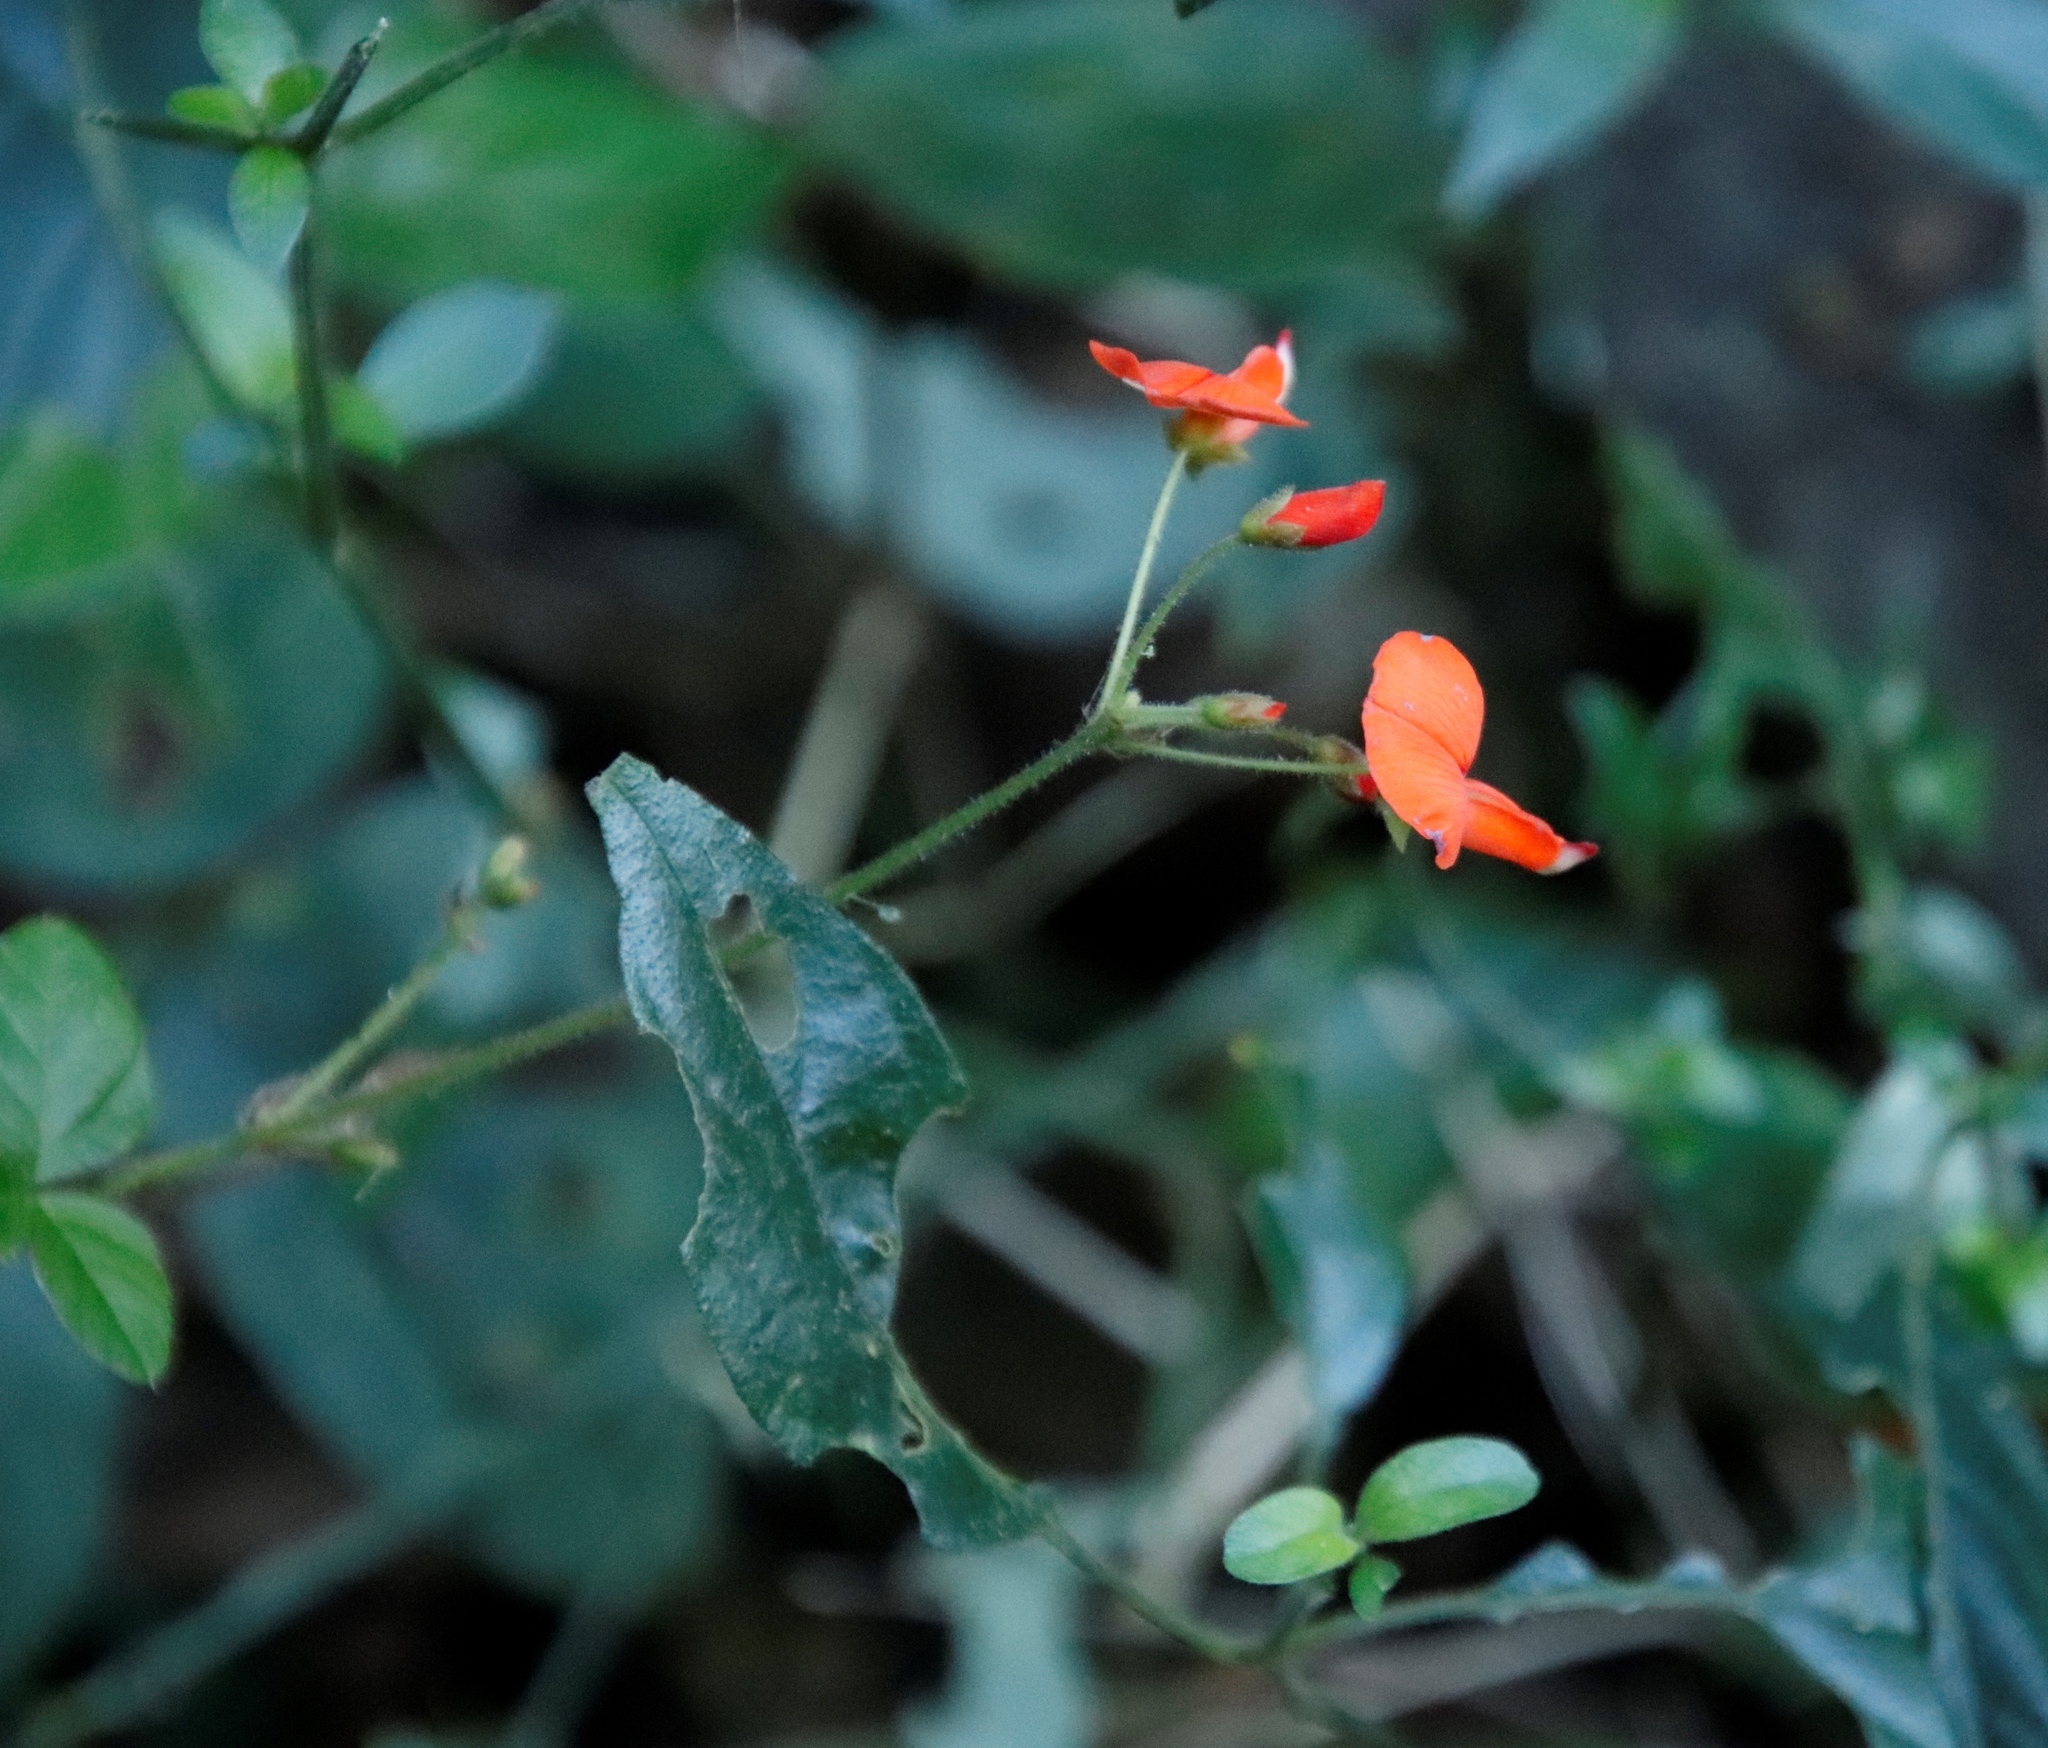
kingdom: Plantae
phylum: Tracheophyta
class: Magnoliopsida
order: Fabales
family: Fabaceae
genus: Hylodesmum
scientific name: Hylodesmum repandum
